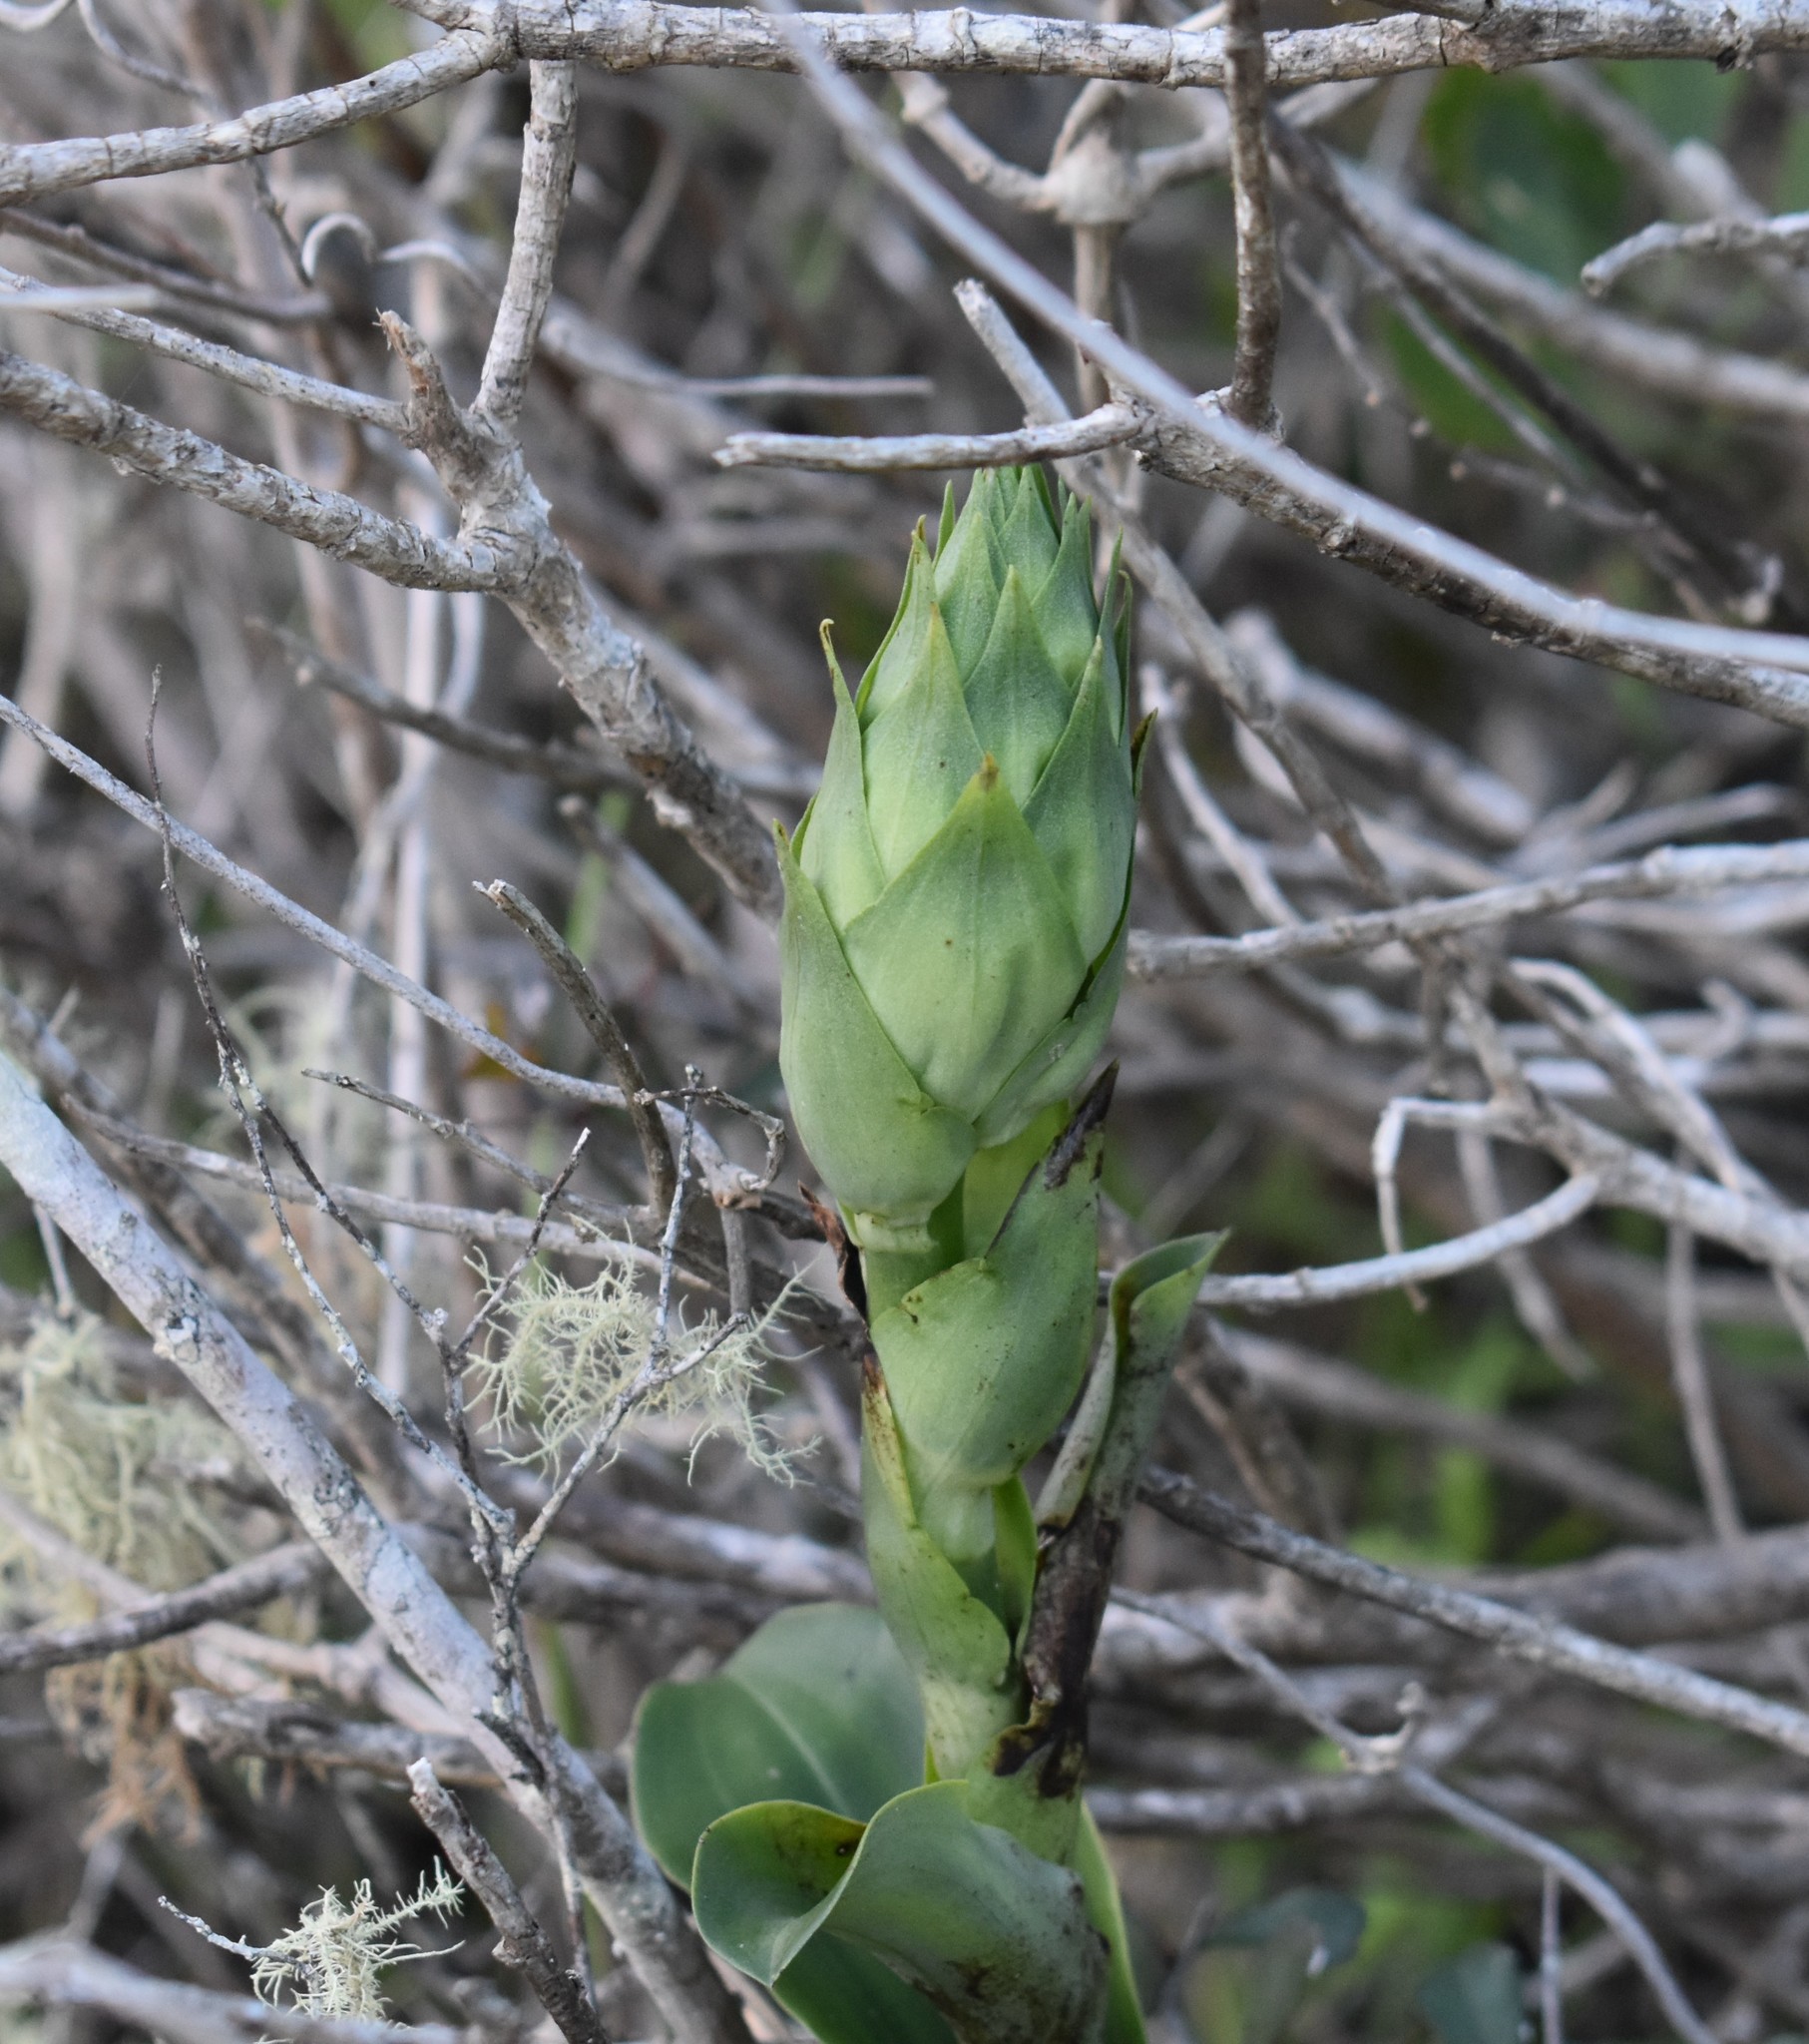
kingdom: Plantae
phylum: Tracheophyta
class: Liliopsida
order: Asparagales
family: Orchidaceae
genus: Bonatea
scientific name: Bonatea speciosa
